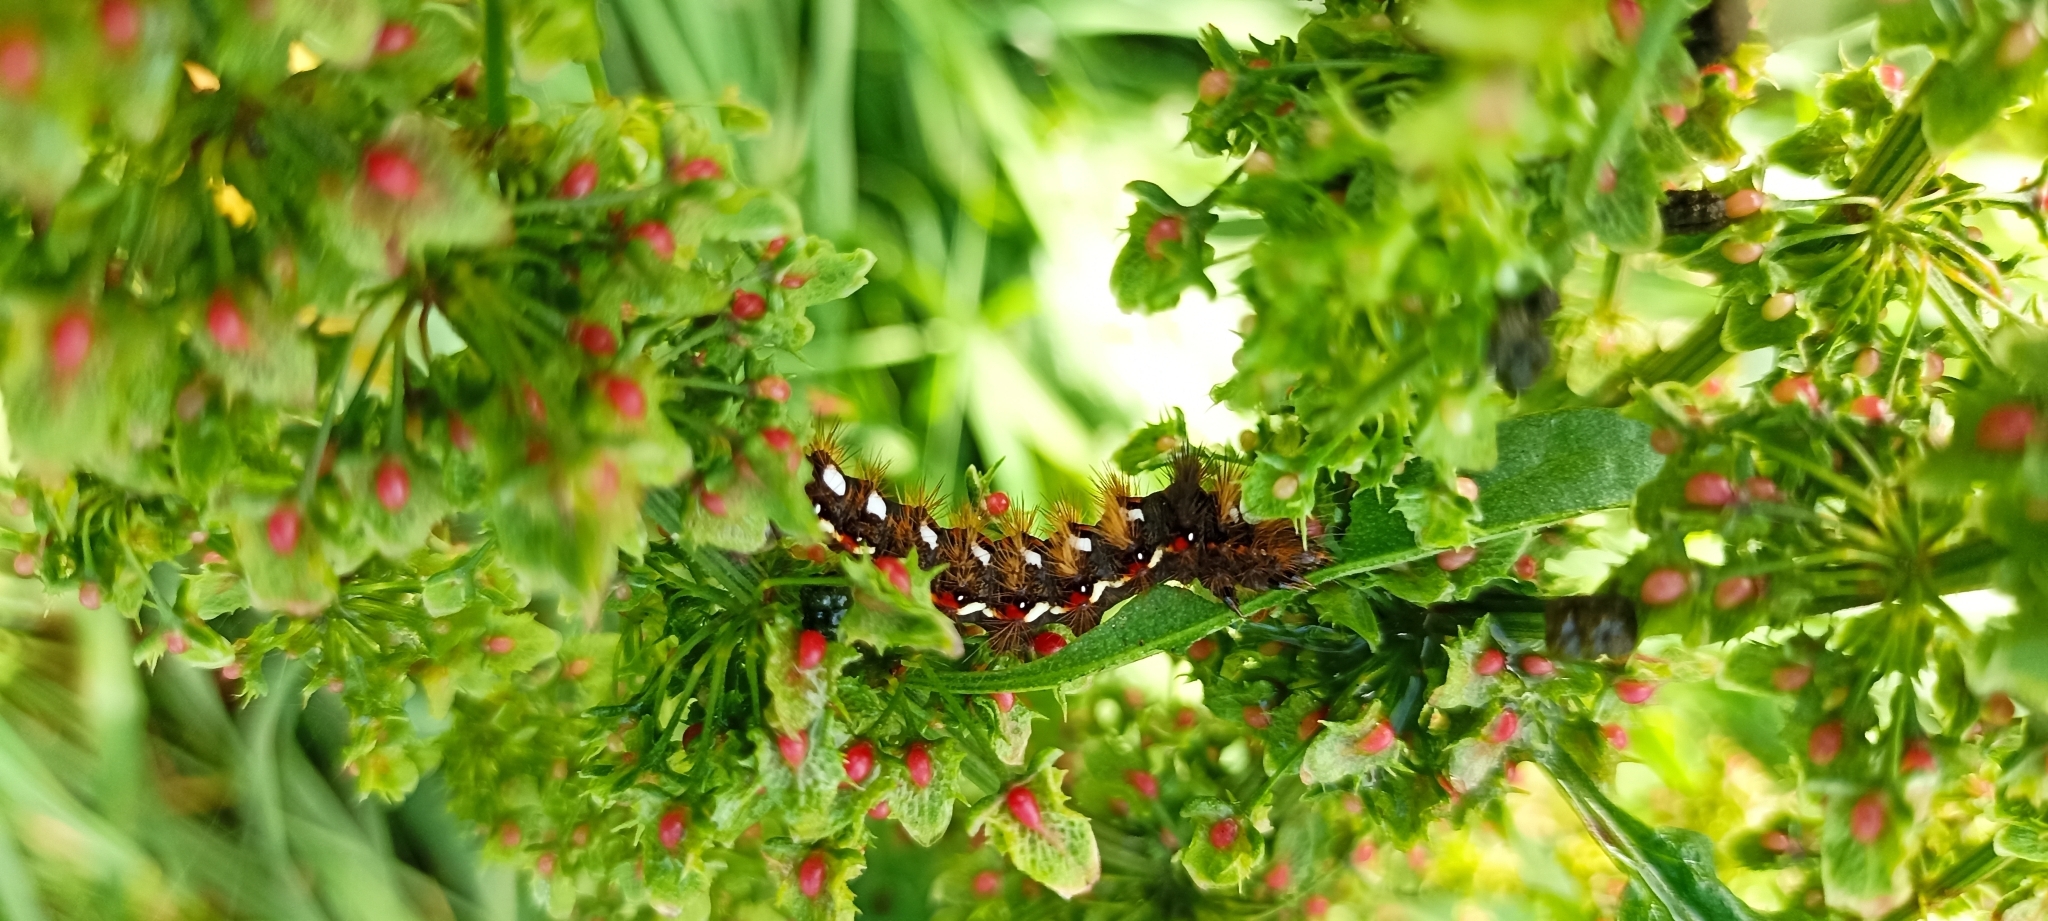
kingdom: Animalia
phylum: Arthropoda
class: Insecta
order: Lepidoptera
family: Noctuidae
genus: Acronicta
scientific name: Acronicta rumicis
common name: Knot grass
